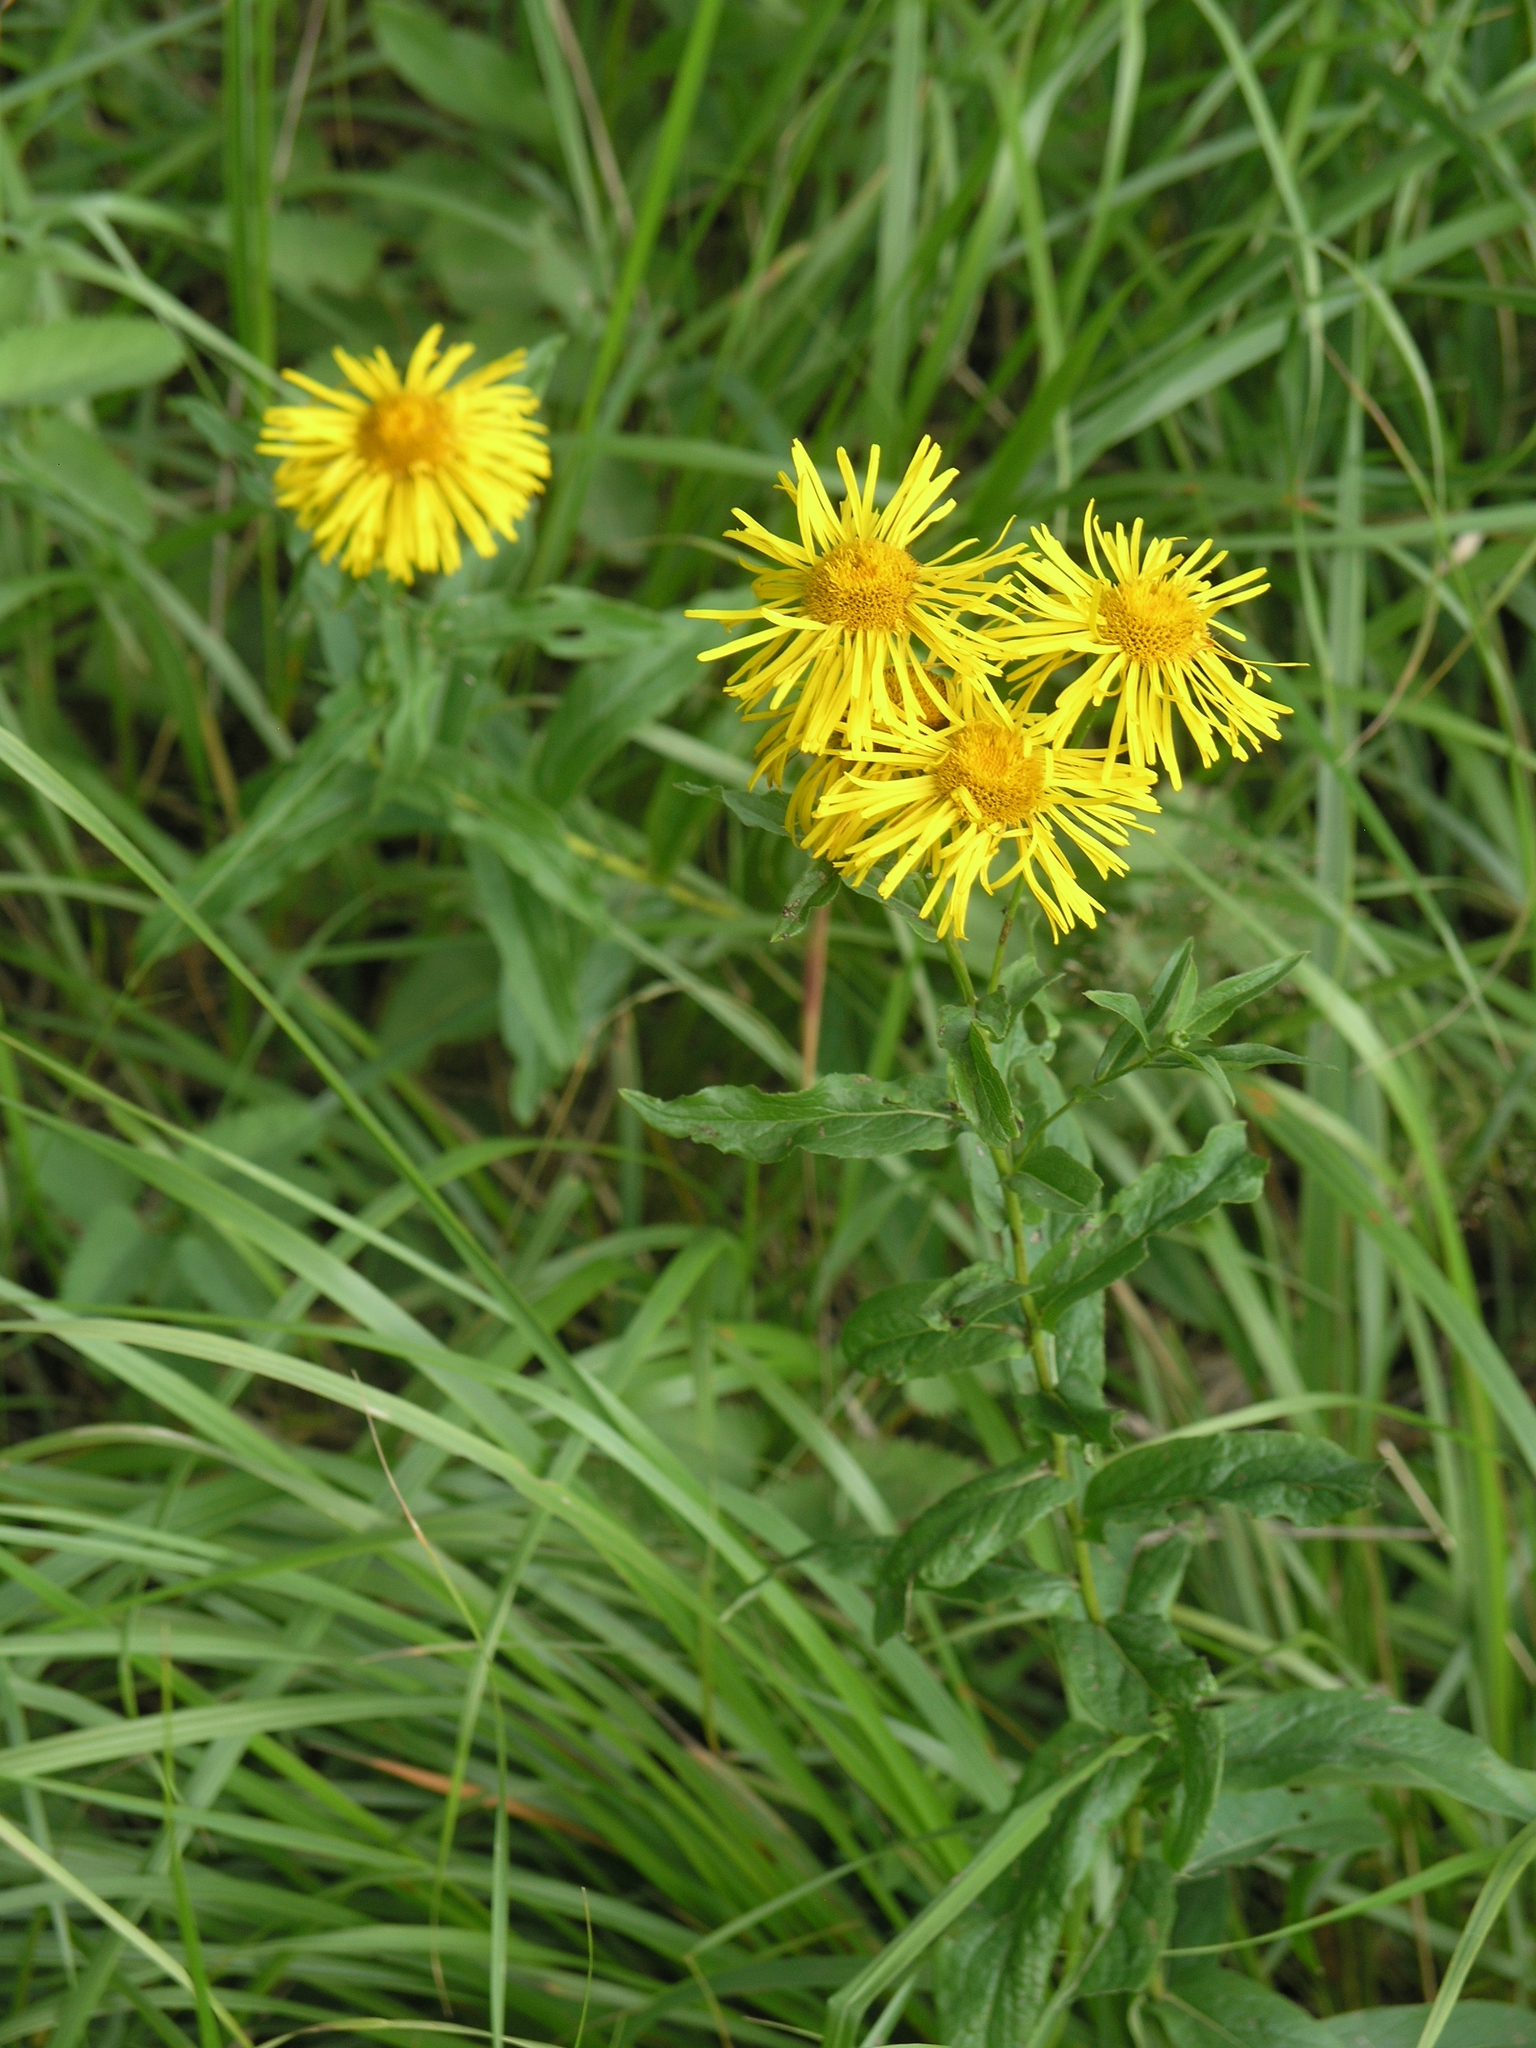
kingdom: Plantae
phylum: Tracheophyta
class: Magnoliopsida
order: Asterales
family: Asteraceae
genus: Pentanema
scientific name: Pentanema salicinum
